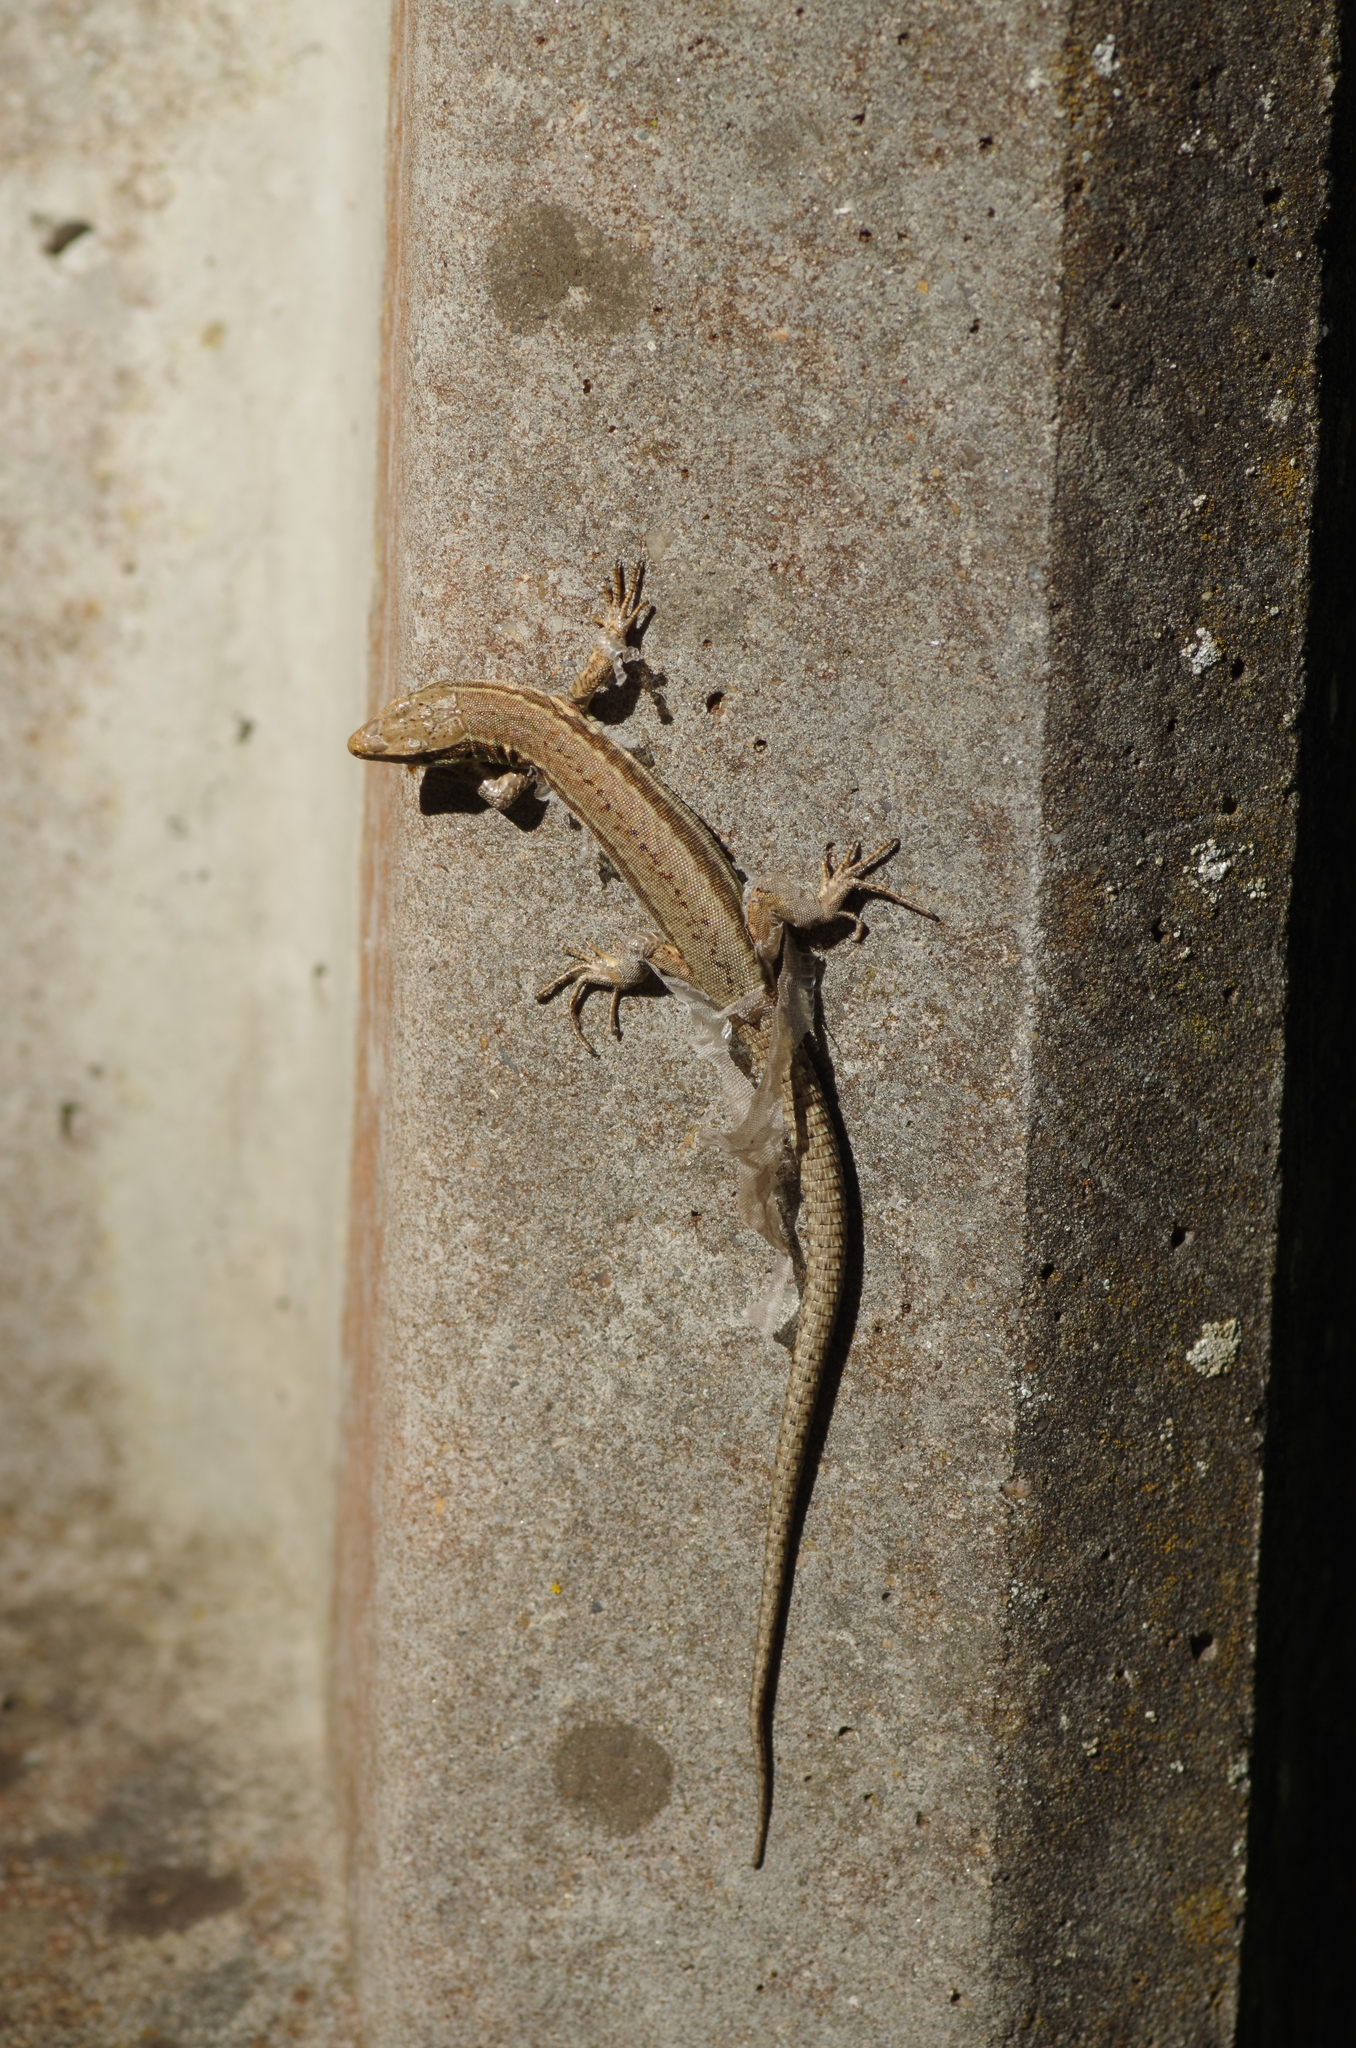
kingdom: Animalia
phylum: Chordata
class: Squamata
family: Lacertidae
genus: Podarcis
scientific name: Podarcis muralis
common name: Common wall lizard
